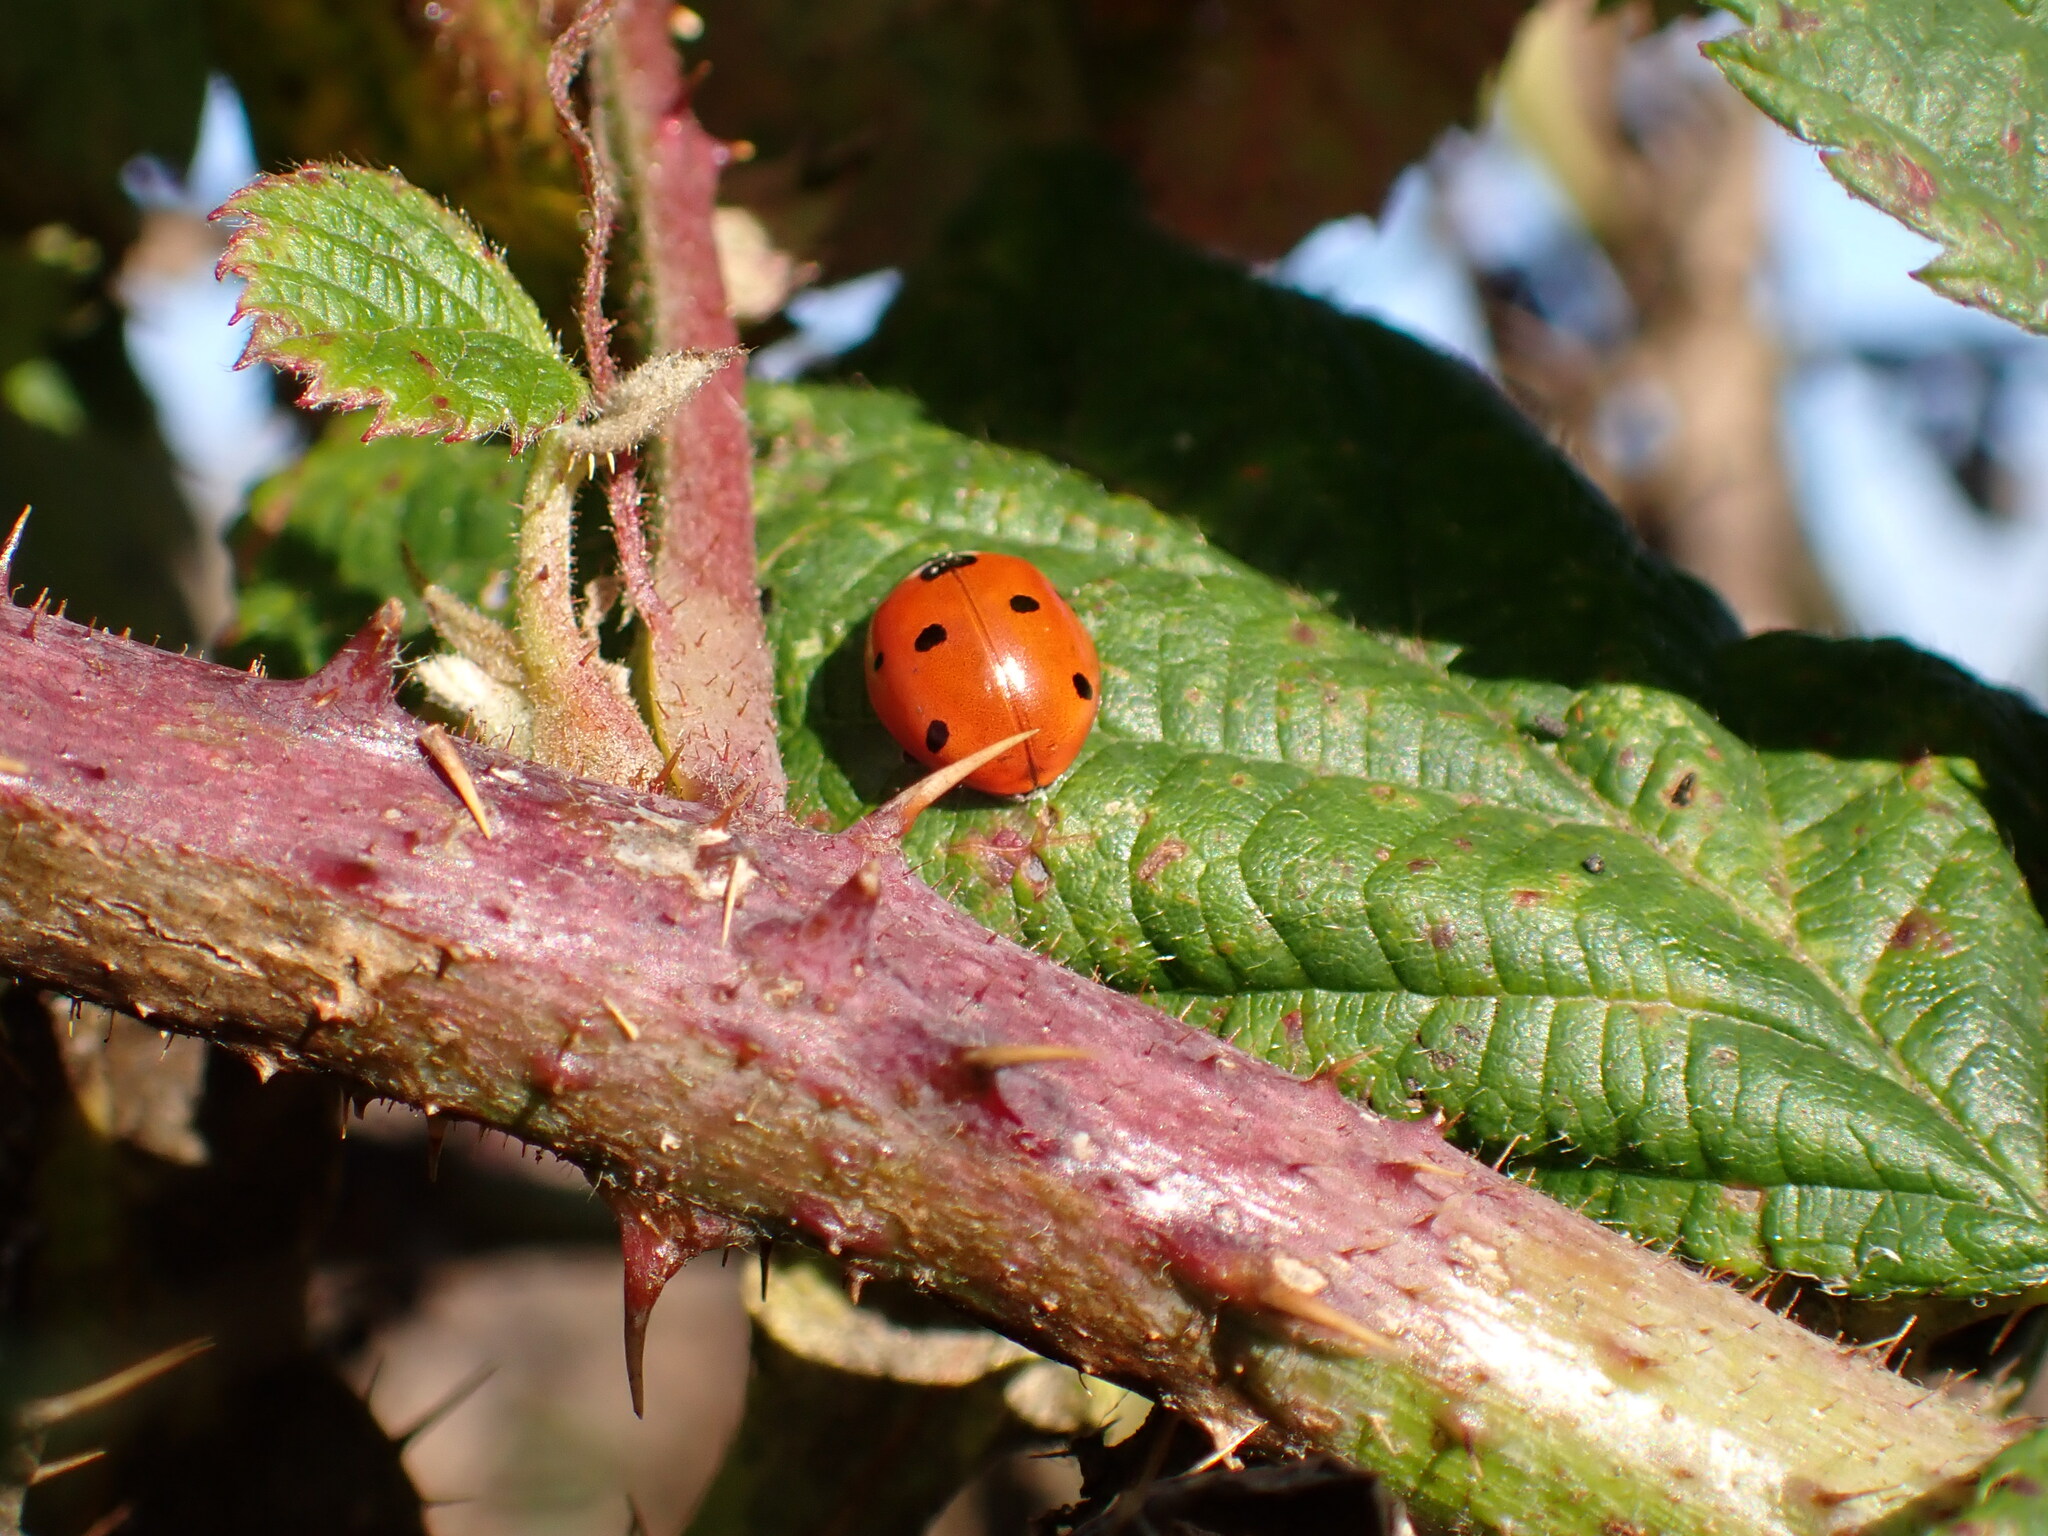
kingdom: Animalia
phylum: Arthropoda
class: Insecta
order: Coleoptera
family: Coccinellidae
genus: Coccinella
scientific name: Coccinella septempunctata
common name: Sevenspotted lady beetle
